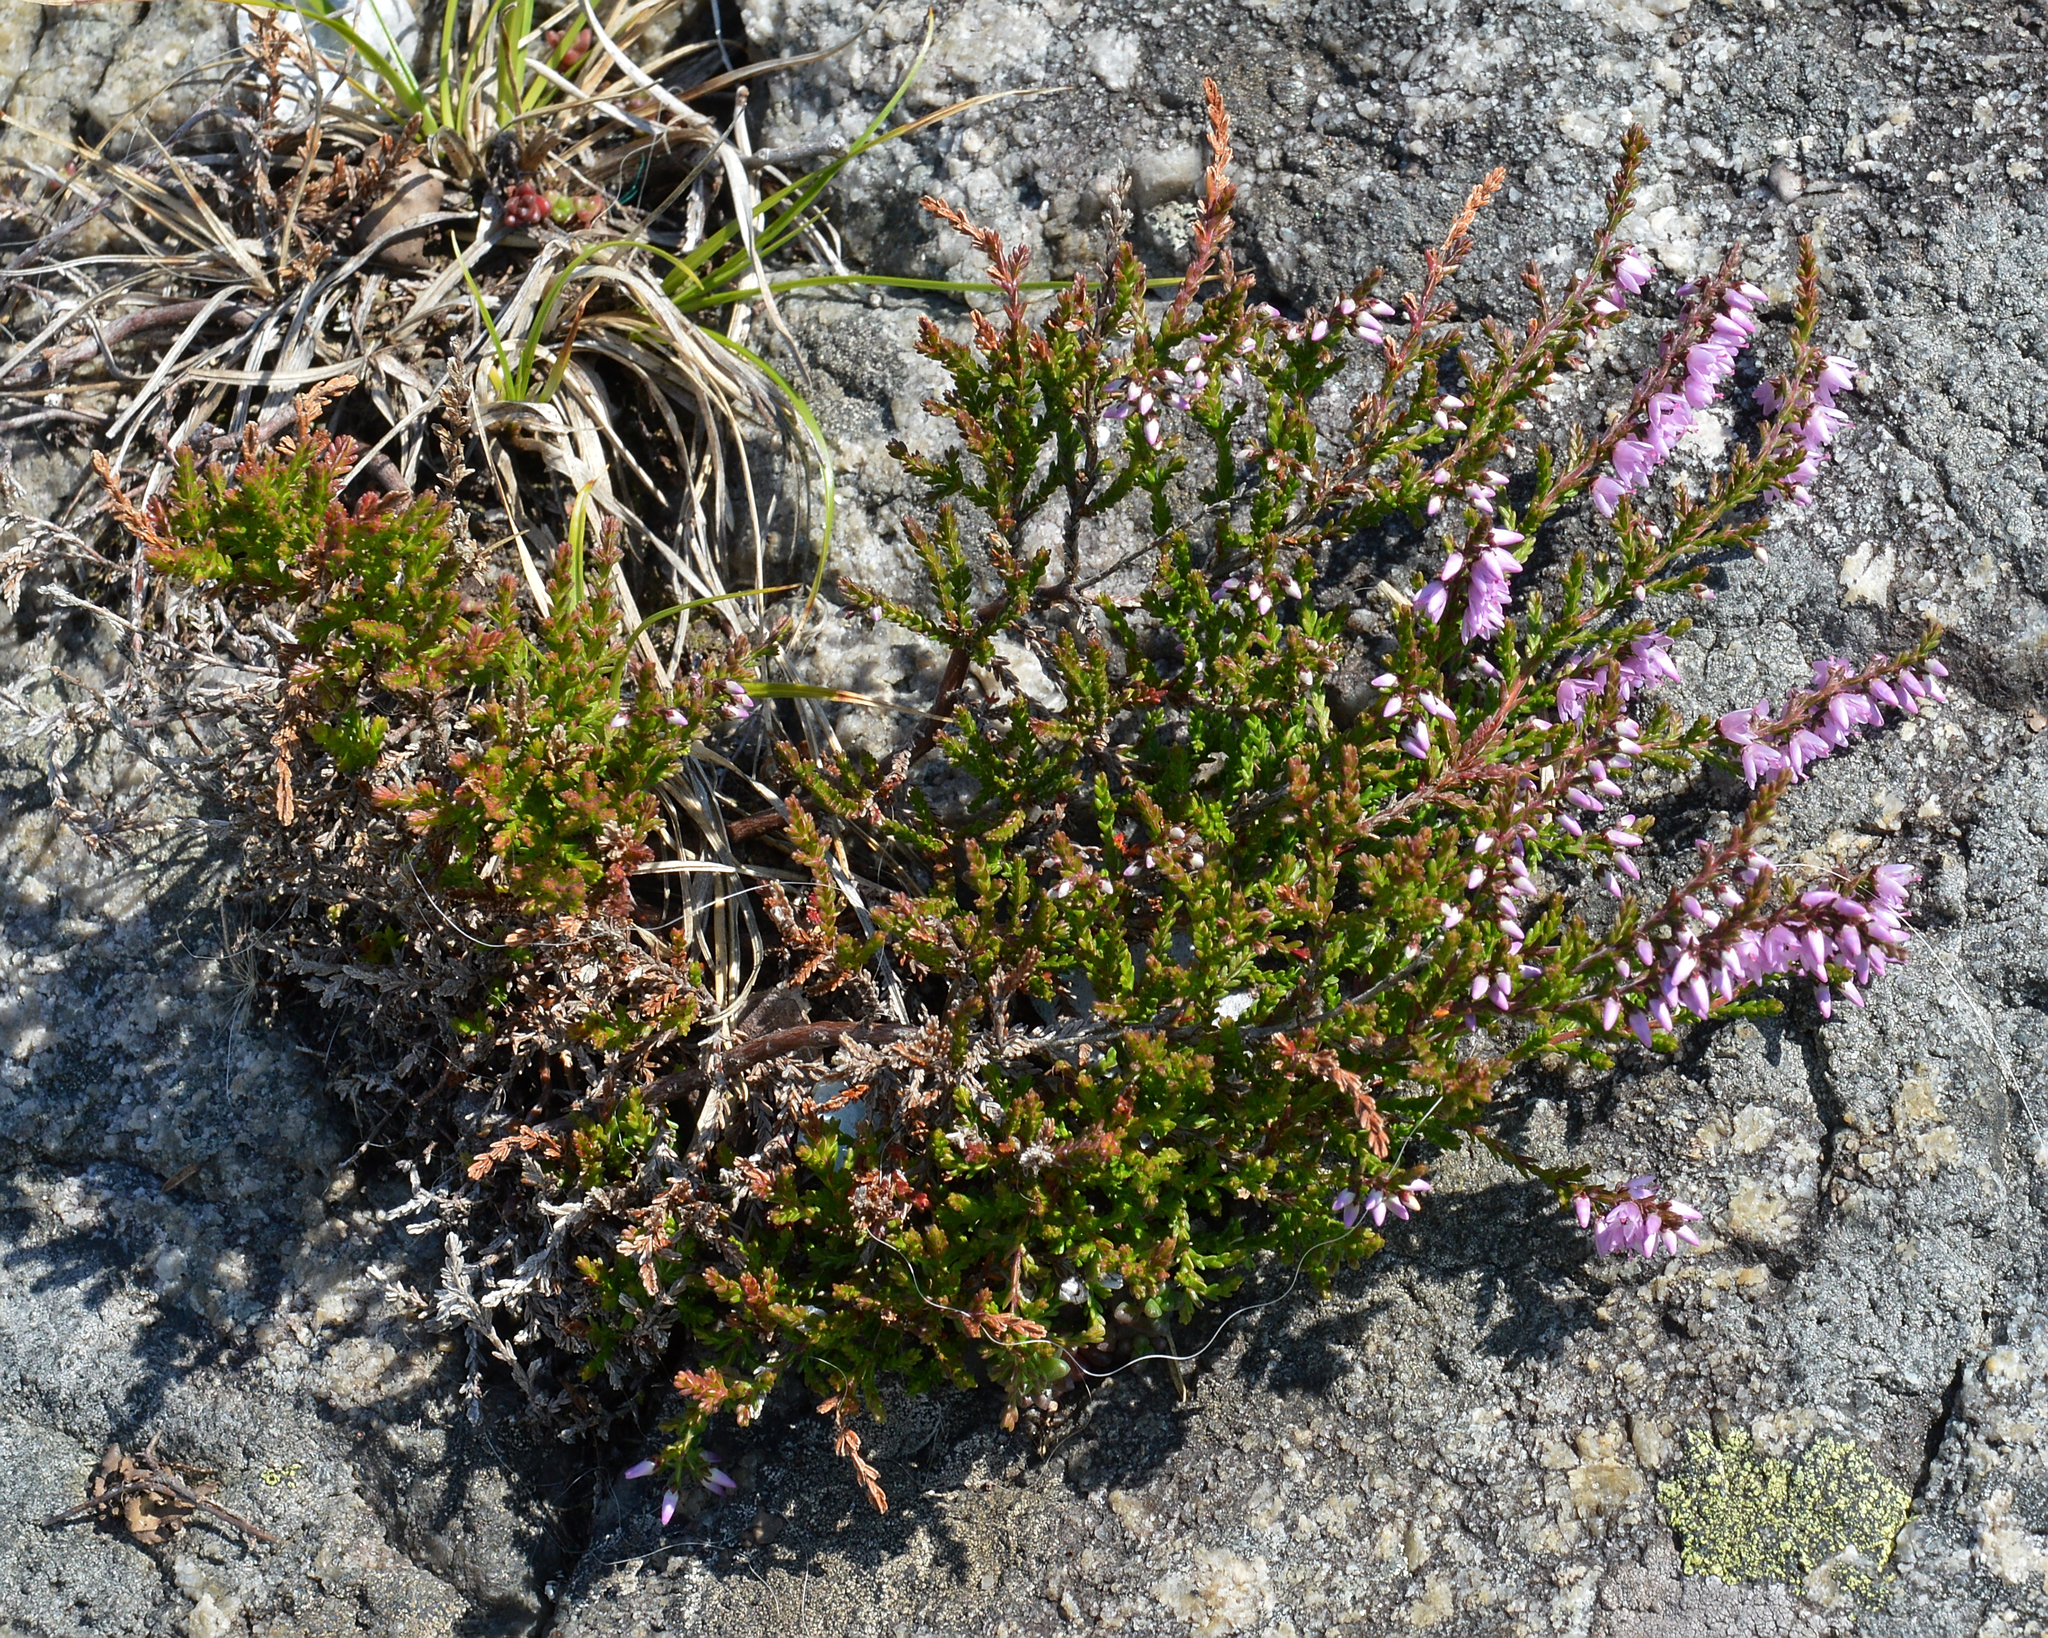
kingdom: Plantae
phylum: Tracheophyta
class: Magnoliopsida
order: Ericales
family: Ericaceae
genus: Calluna
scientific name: Calluna vulgaris
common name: Heather
